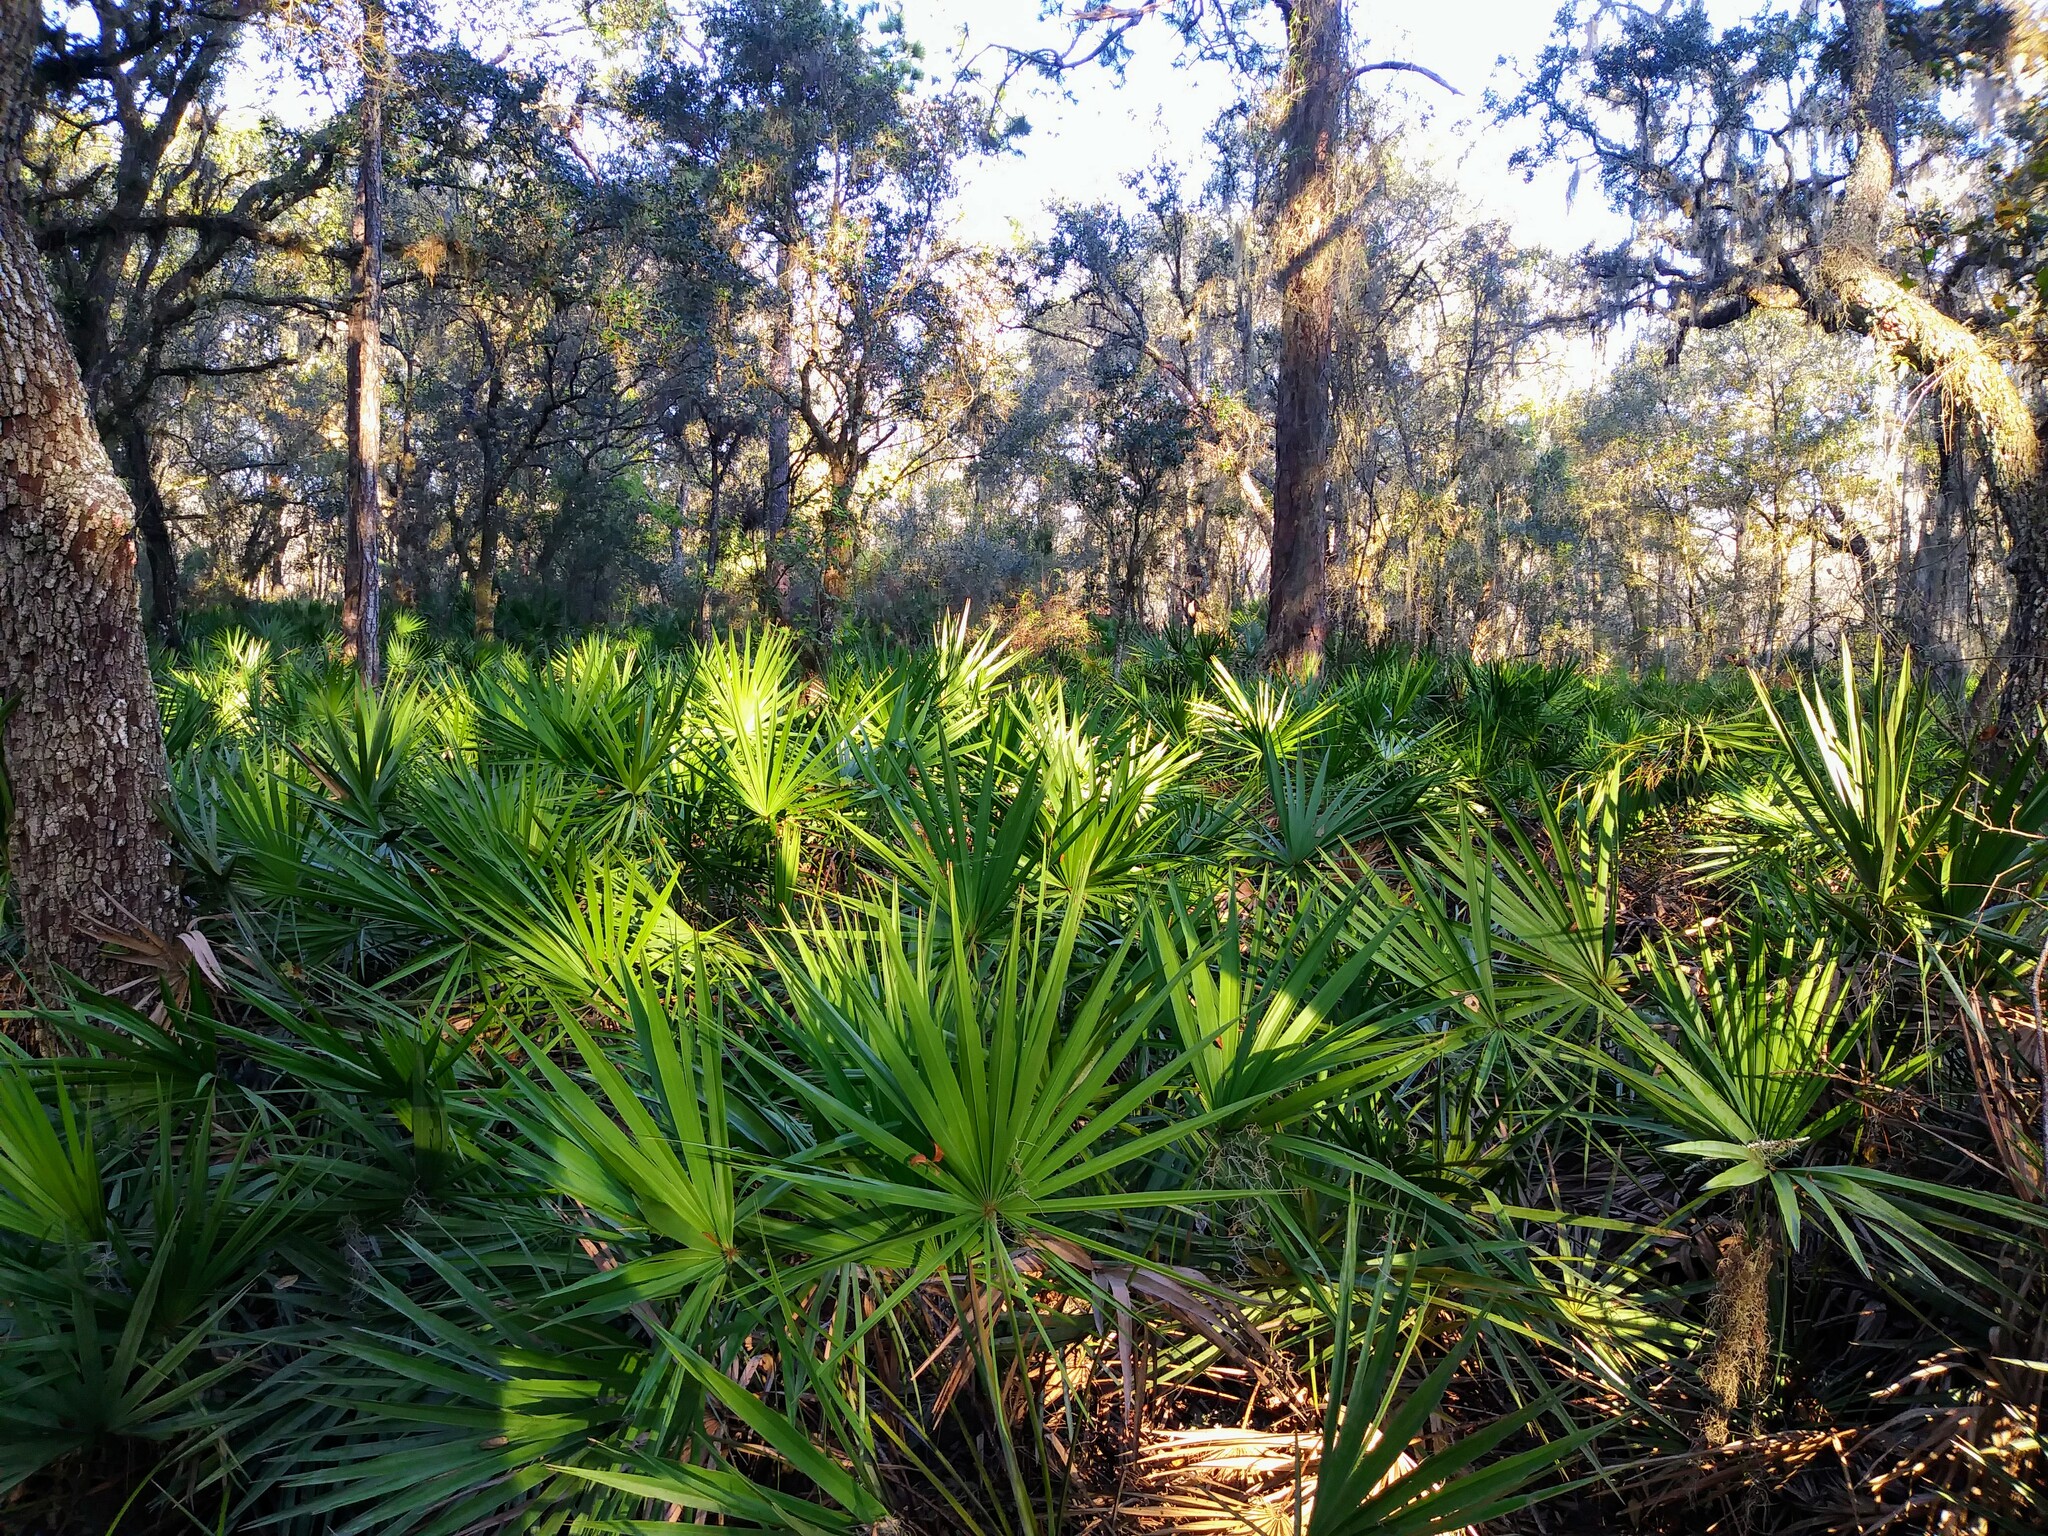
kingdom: Plantae
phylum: Tracheophyta
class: Liliopsida
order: Arecales
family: Arecaceae
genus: Serenoa
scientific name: Serenoa repens
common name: Saw-palmetto
